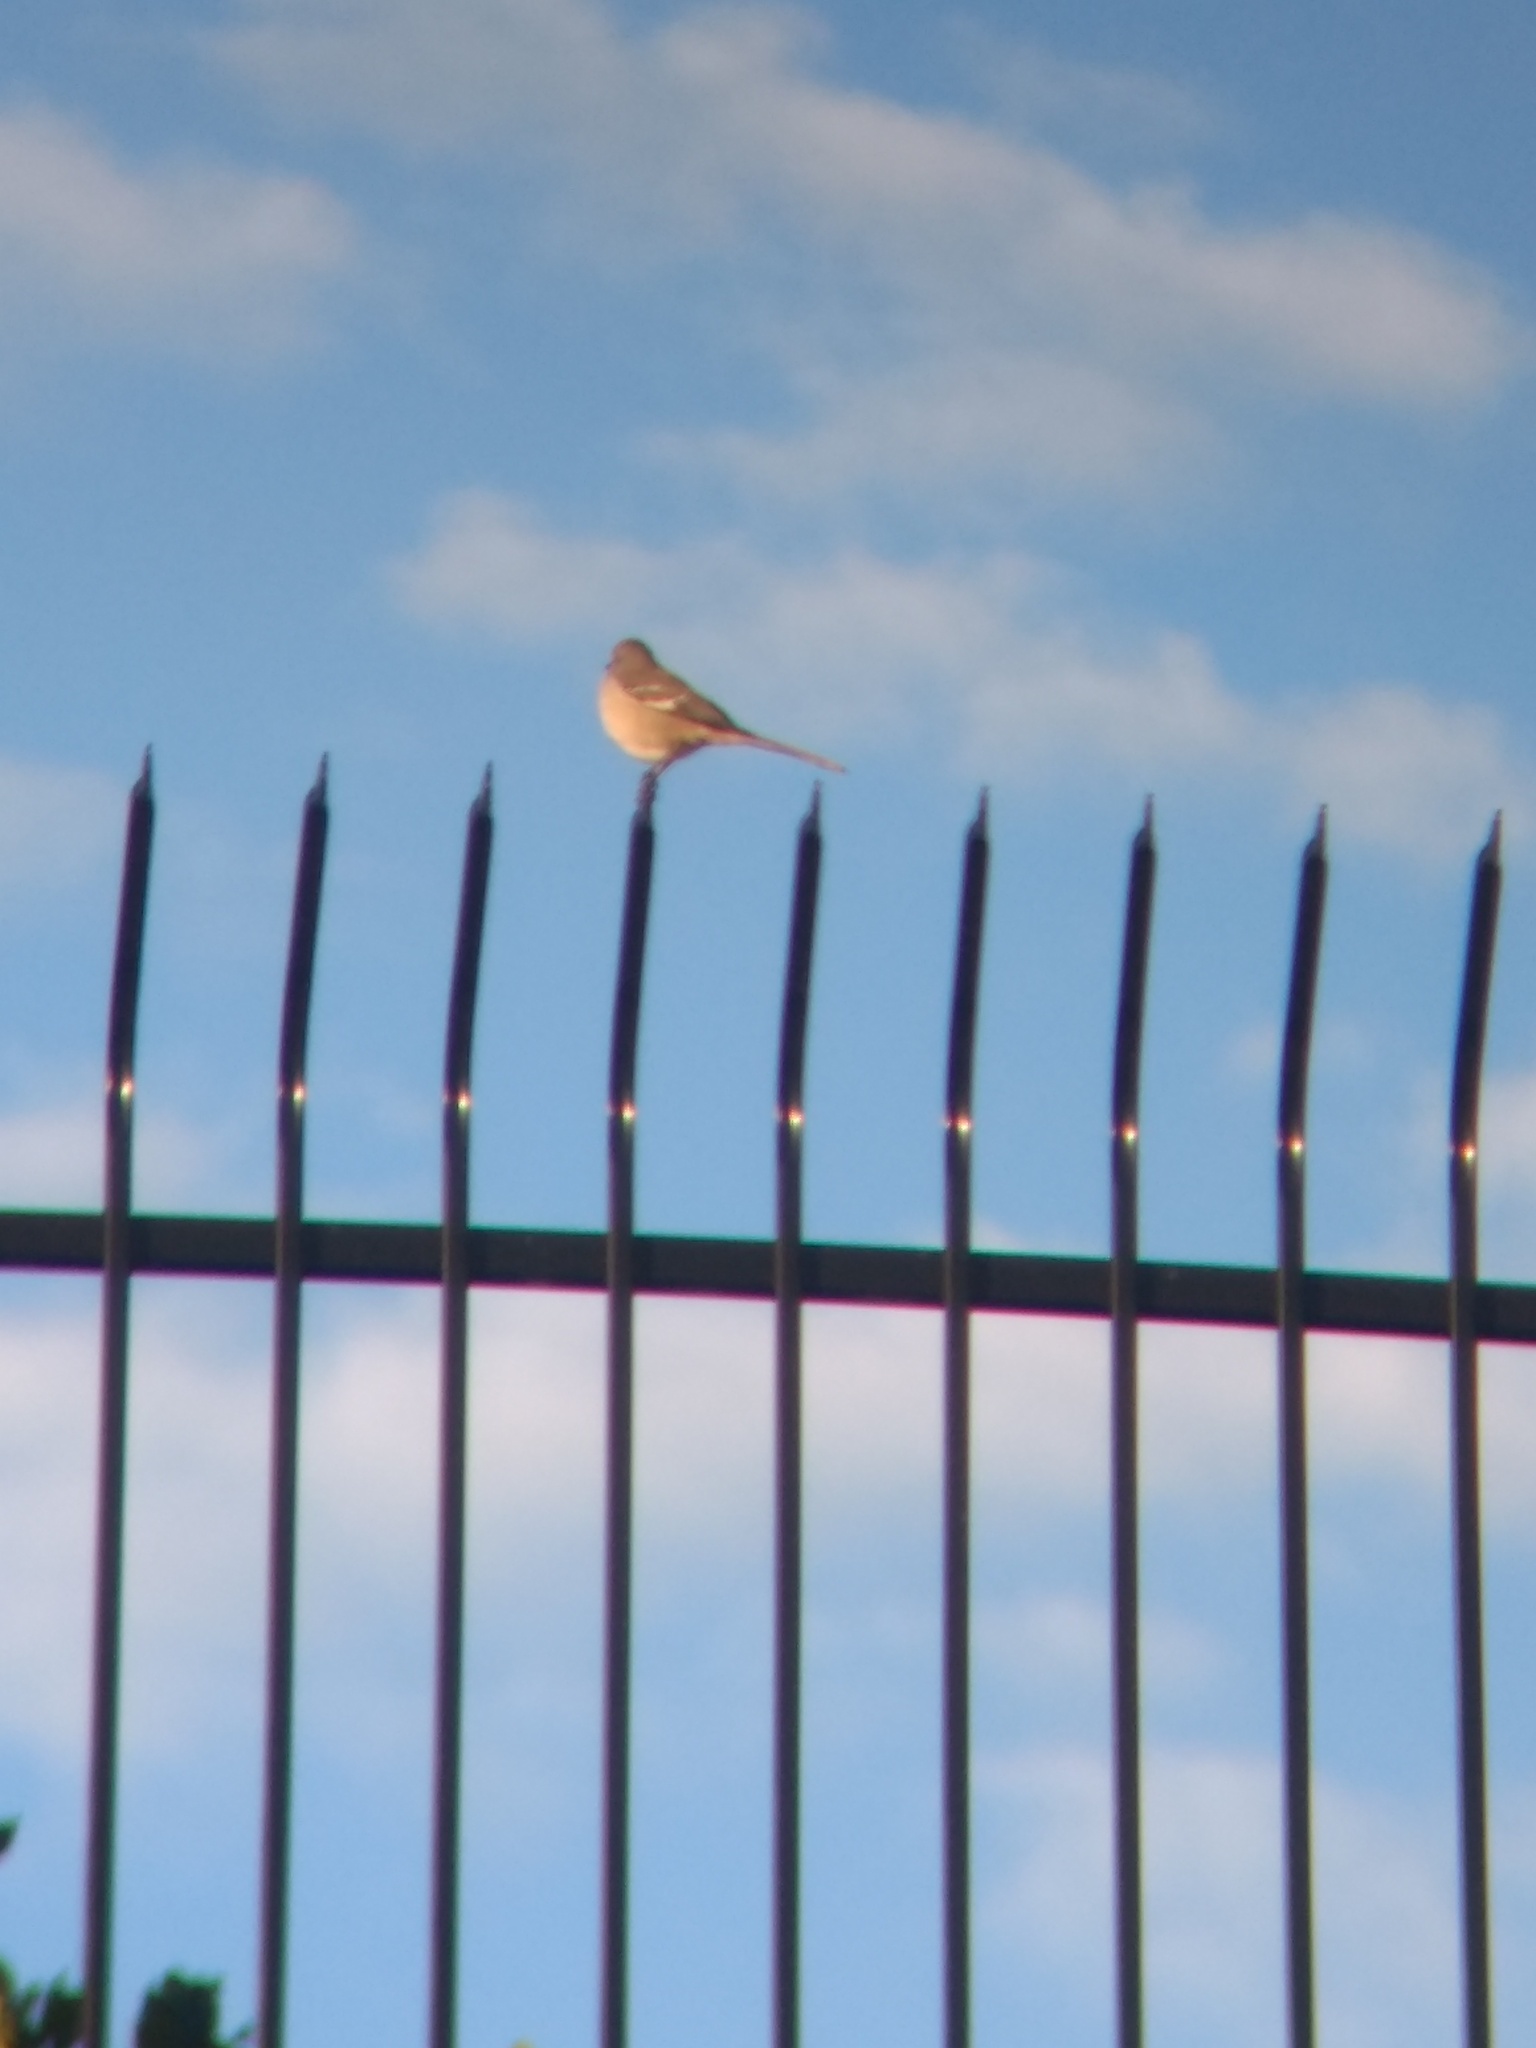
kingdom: Animalia
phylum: Chordata
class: Aves
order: Passeriformes
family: Mimidae
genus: Mimus
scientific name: Mimus polyglottos
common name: Northern mockingbird
